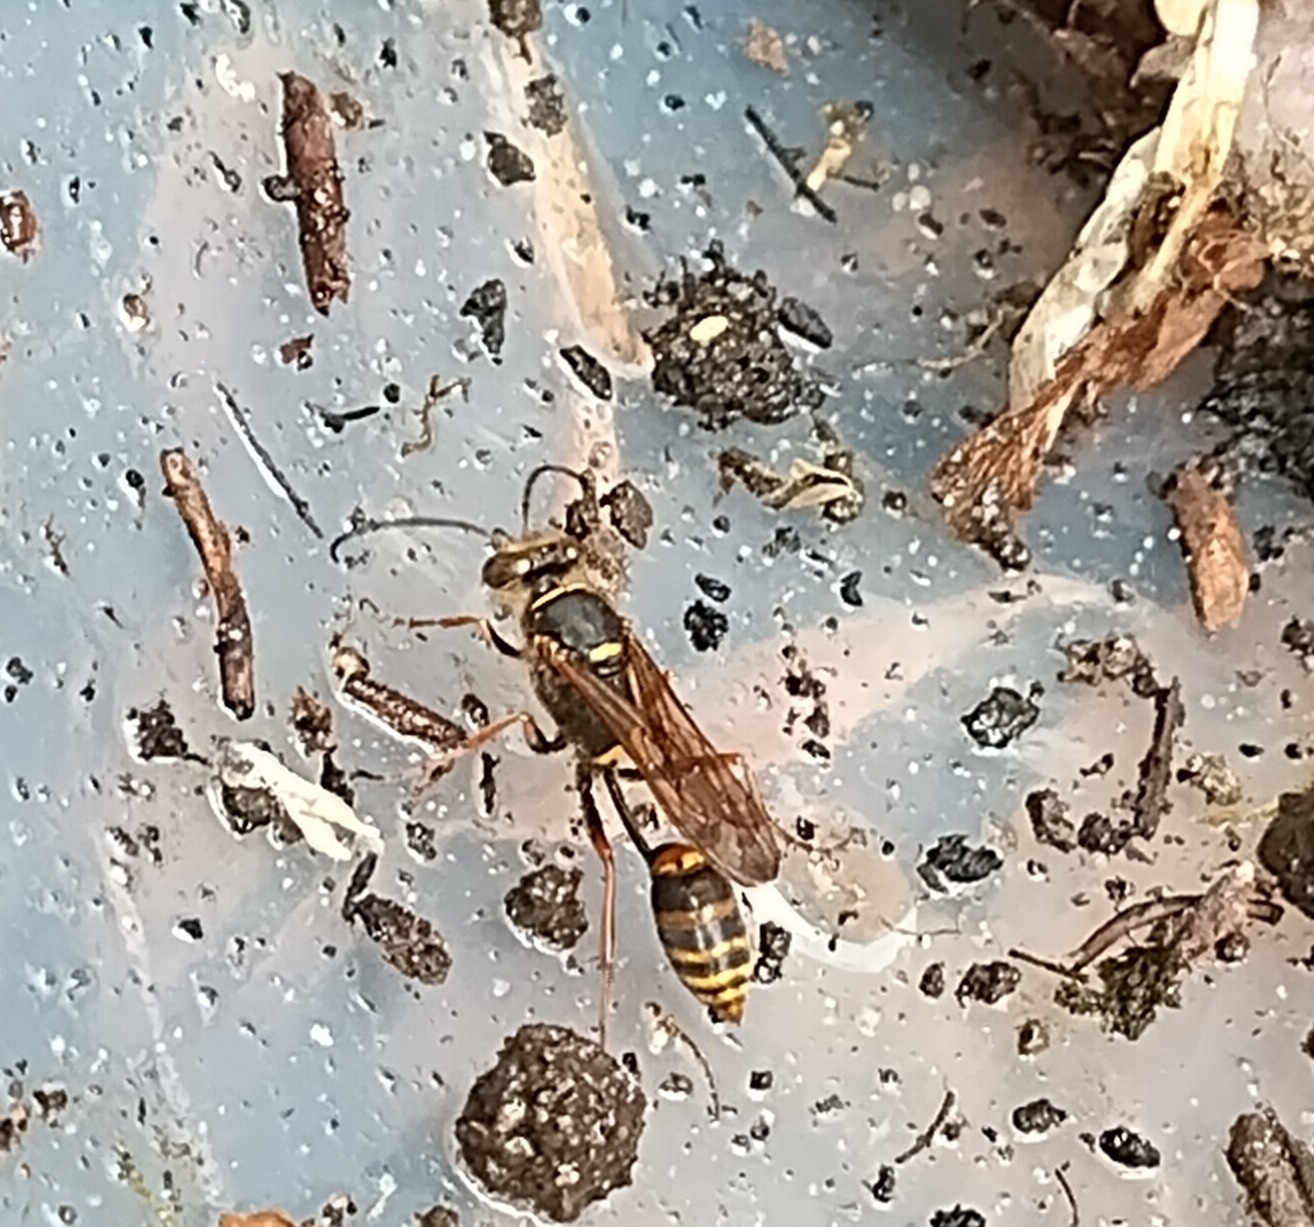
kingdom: Animalia
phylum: Arthropoda
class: Insecta
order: Hymenoptera
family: Sphecidae
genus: Sceliphron
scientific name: Sceliphron curvatum
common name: Pèlopèe
